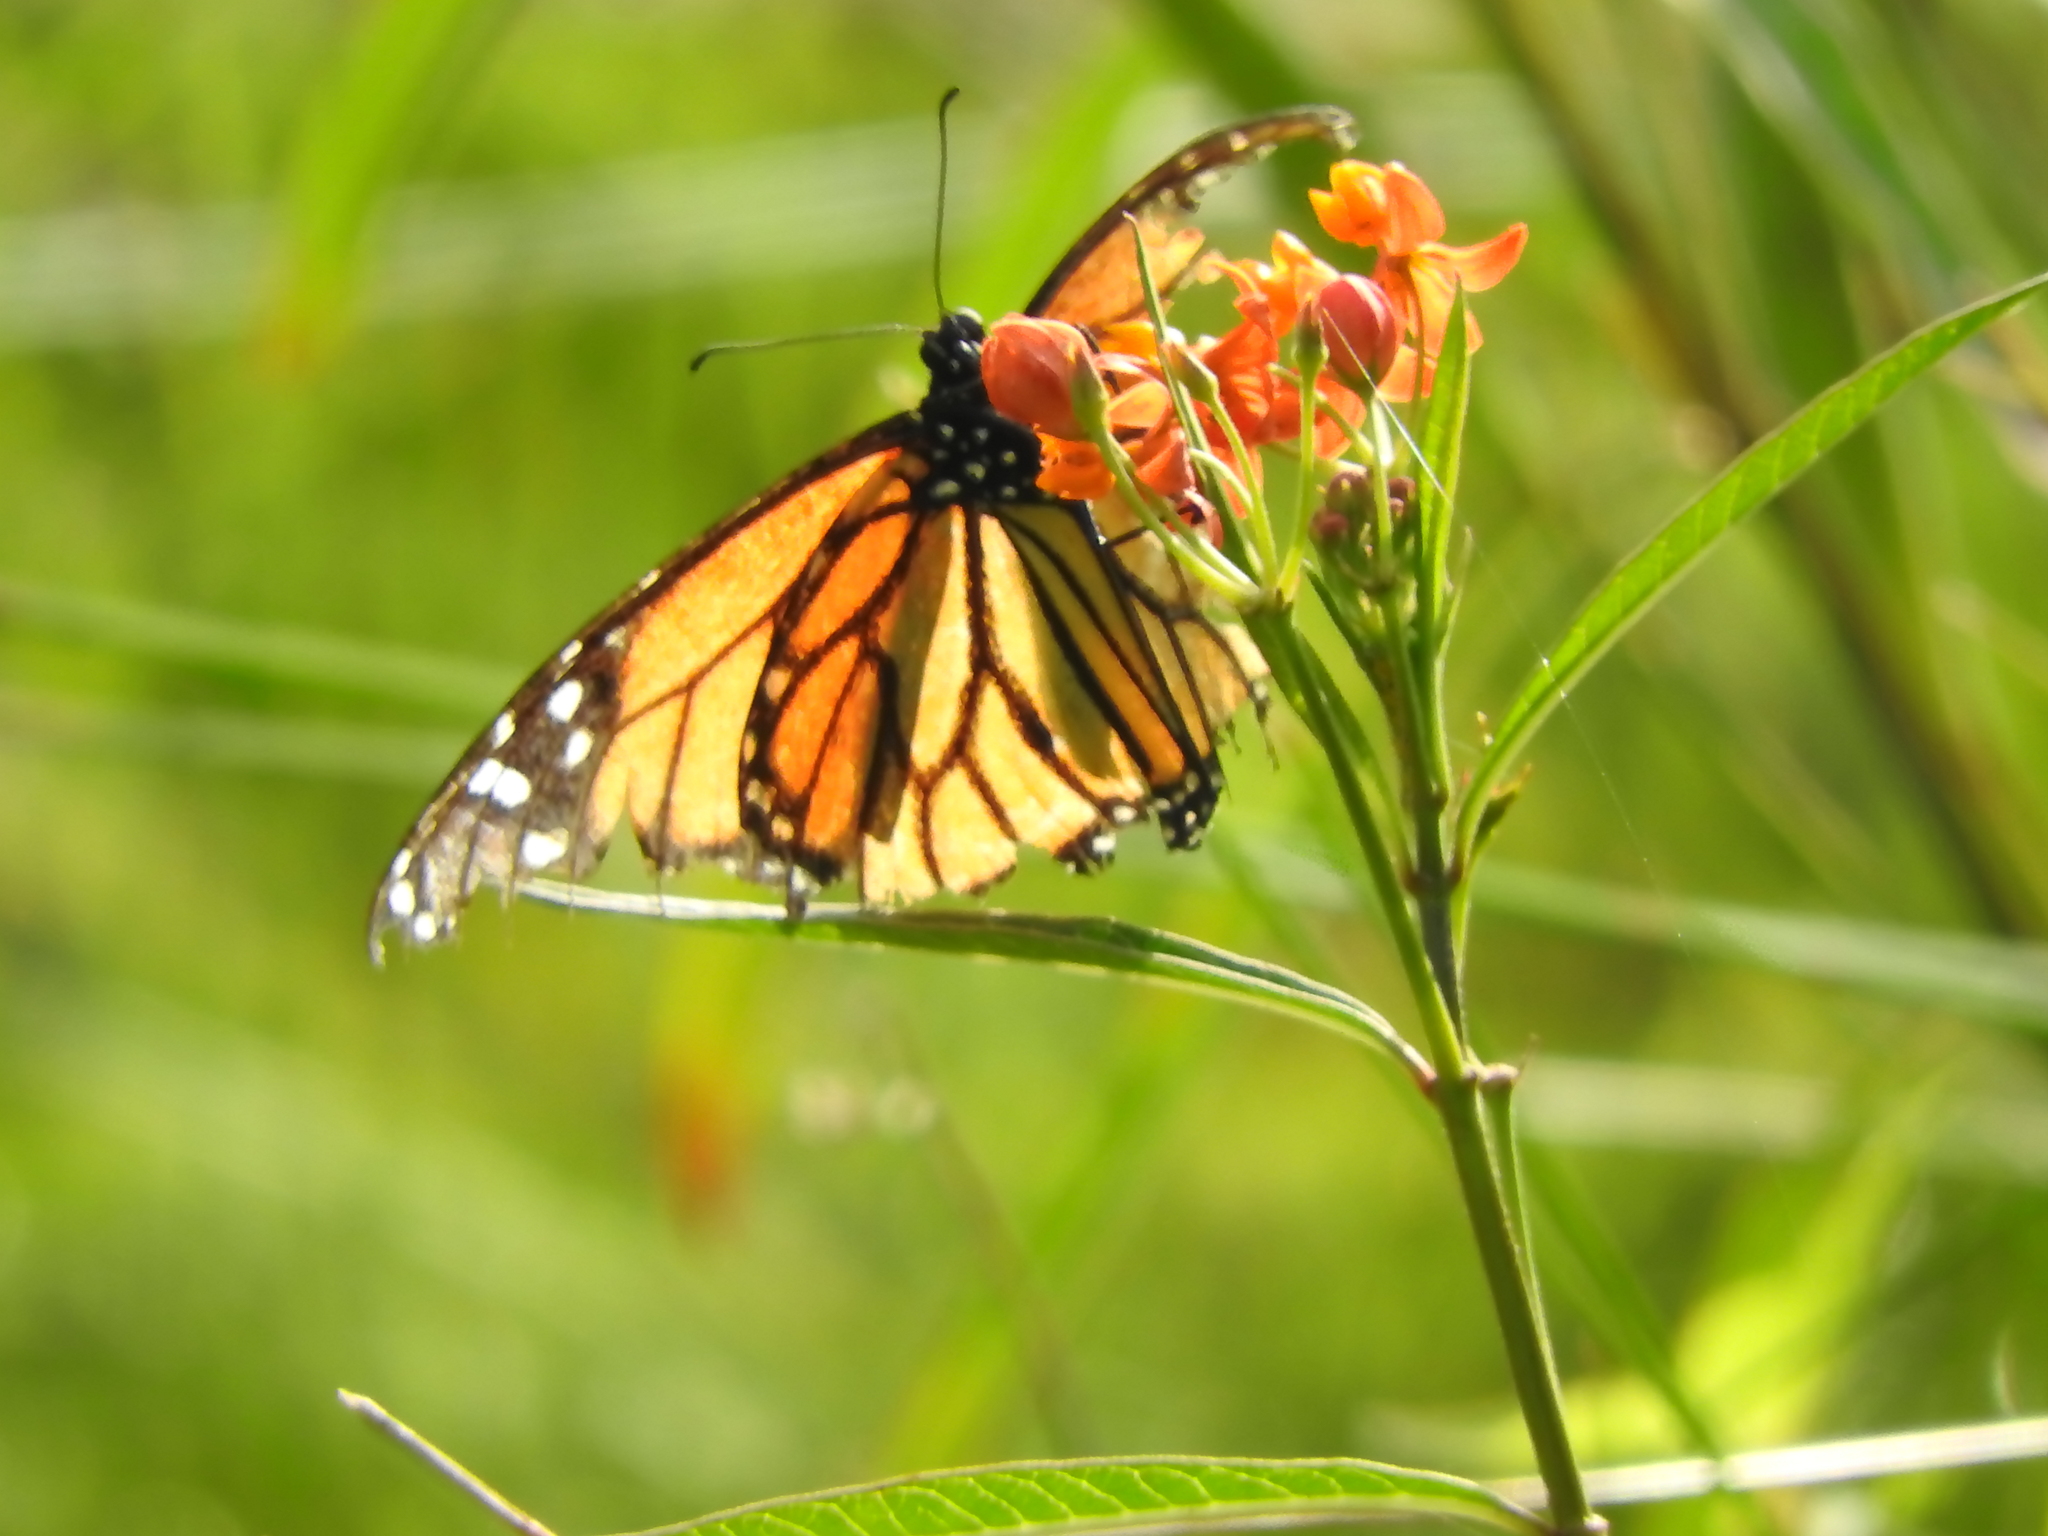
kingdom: Animalia
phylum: Arthropoda
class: Insecta
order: Lepidoptera
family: Nymphalidae
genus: Danaus
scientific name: Danaus plexippus
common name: Monarch
